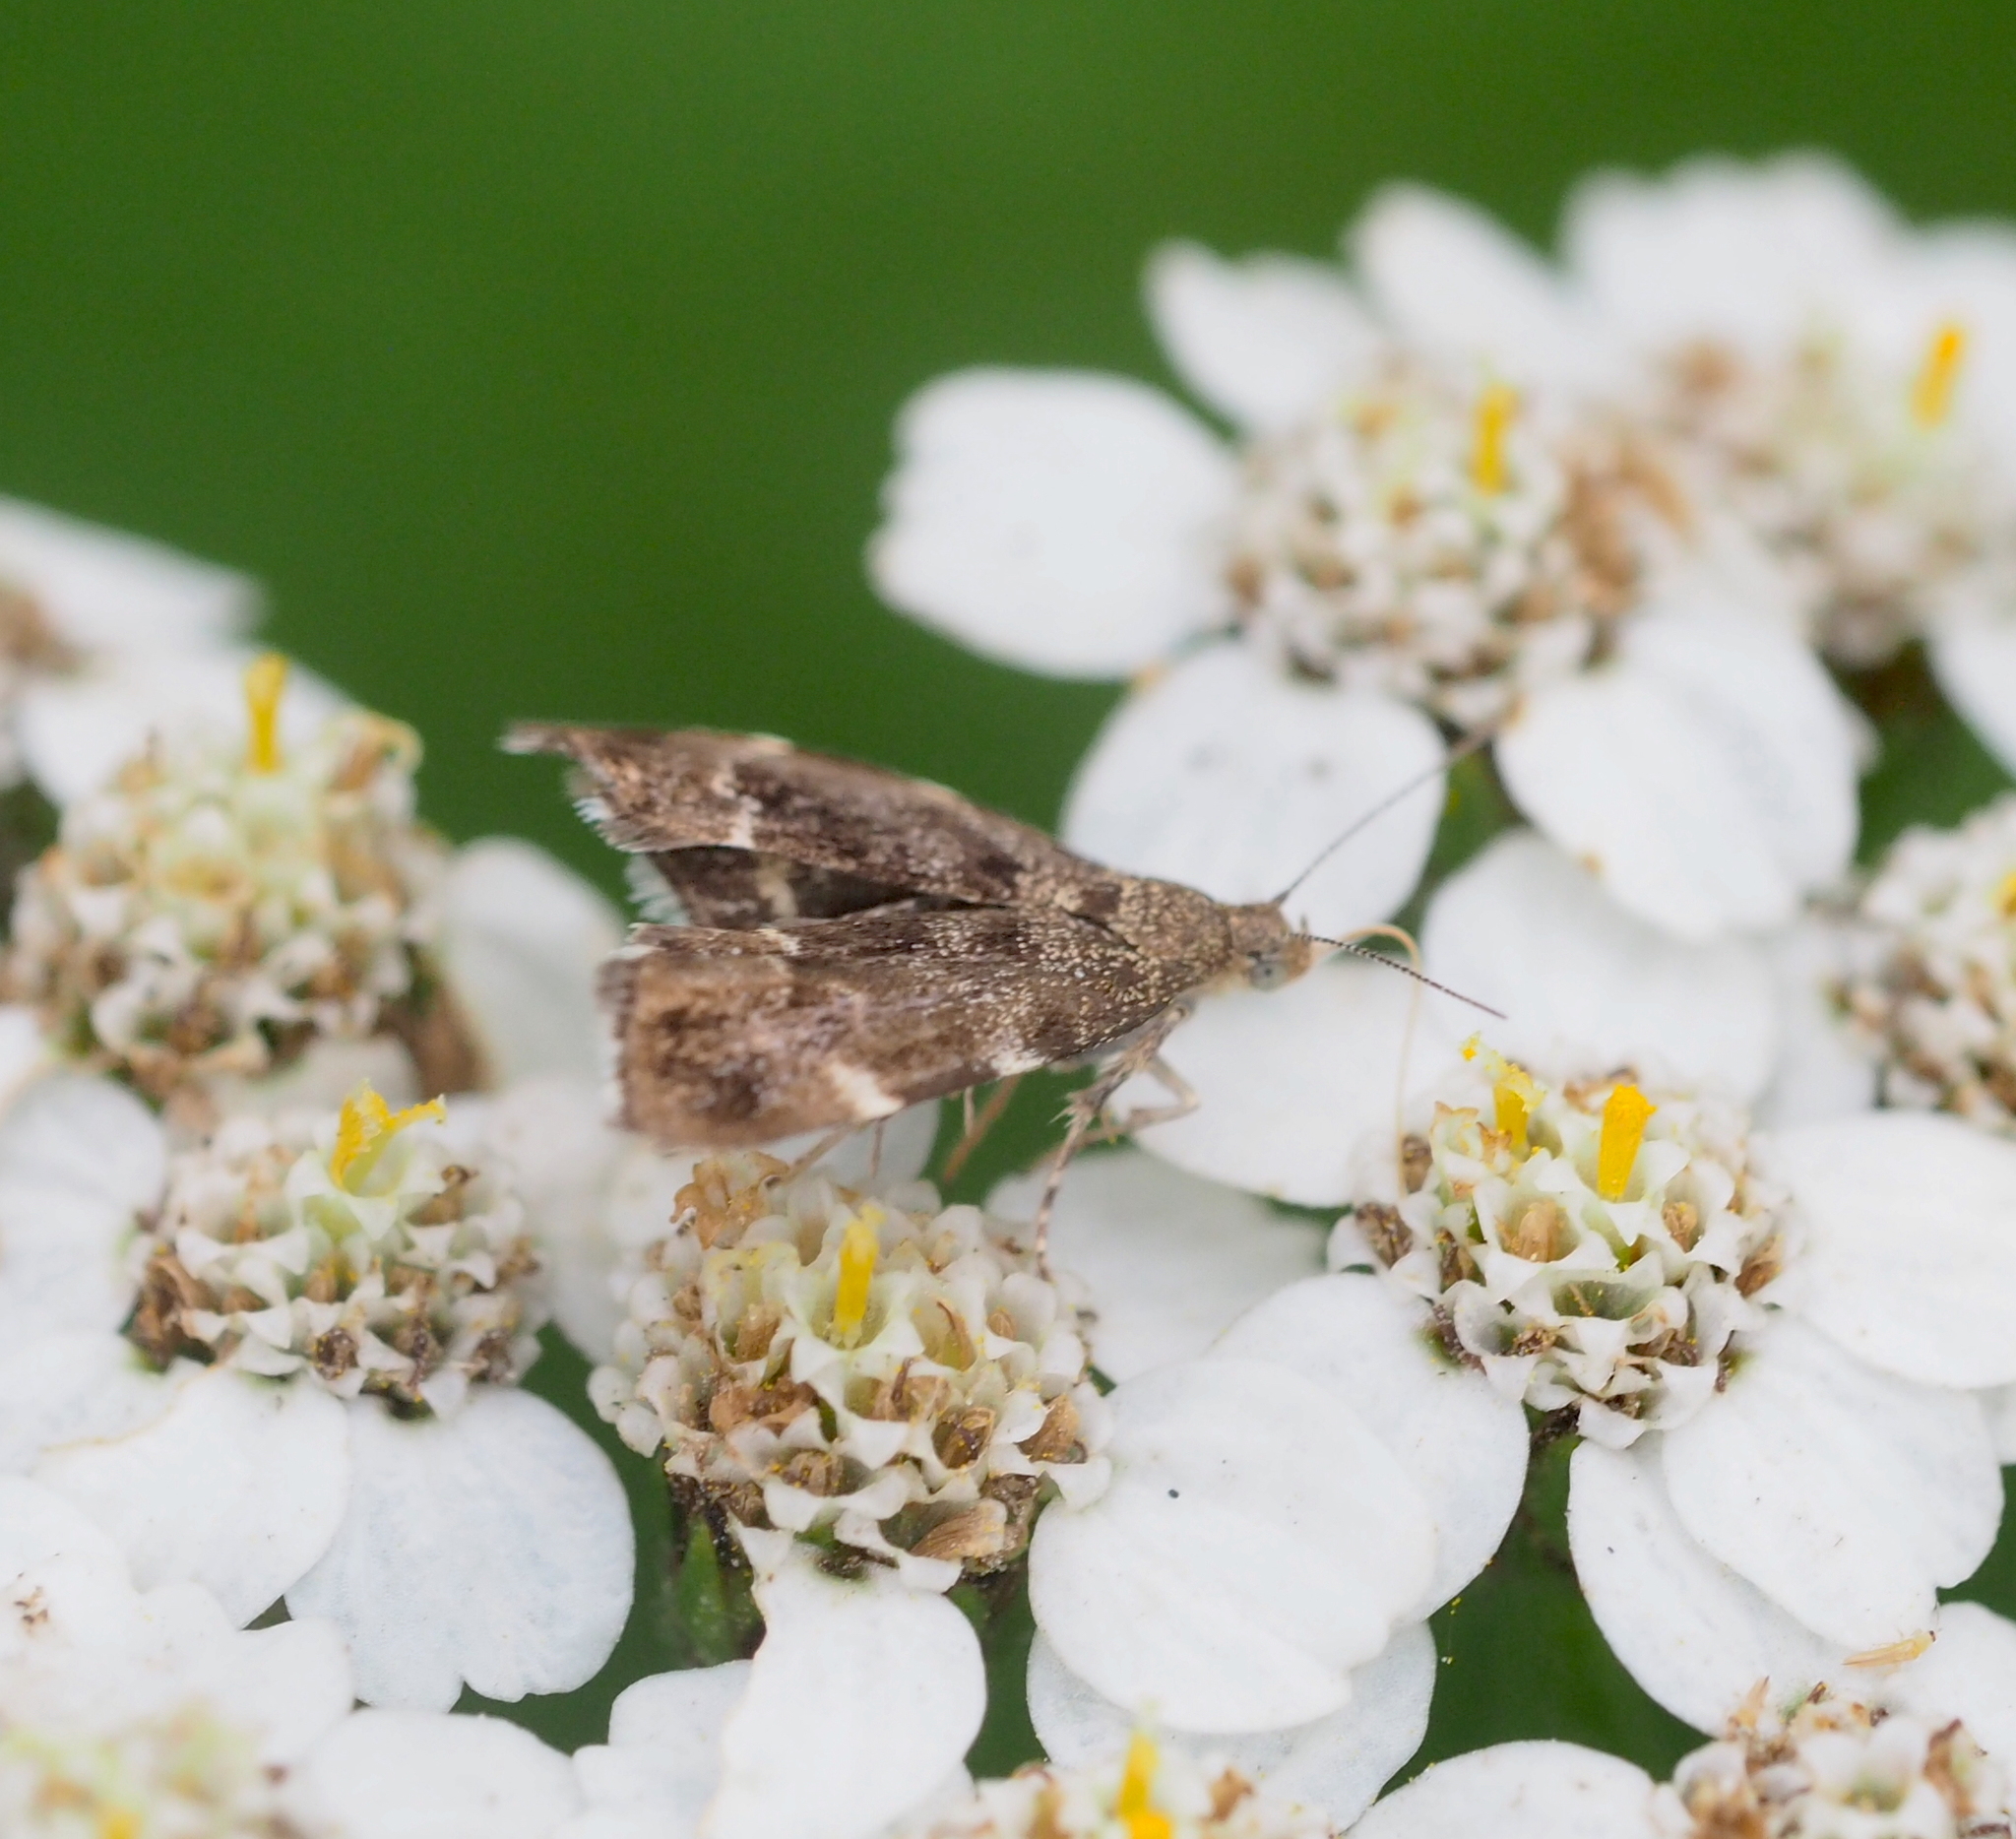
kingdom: Animalia
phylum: Arthropoda
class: Insecta
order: Lepidoptera
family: Choreutidae
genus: Anthophila
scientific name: Anthophila fabriciana
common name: Nettle-tap
